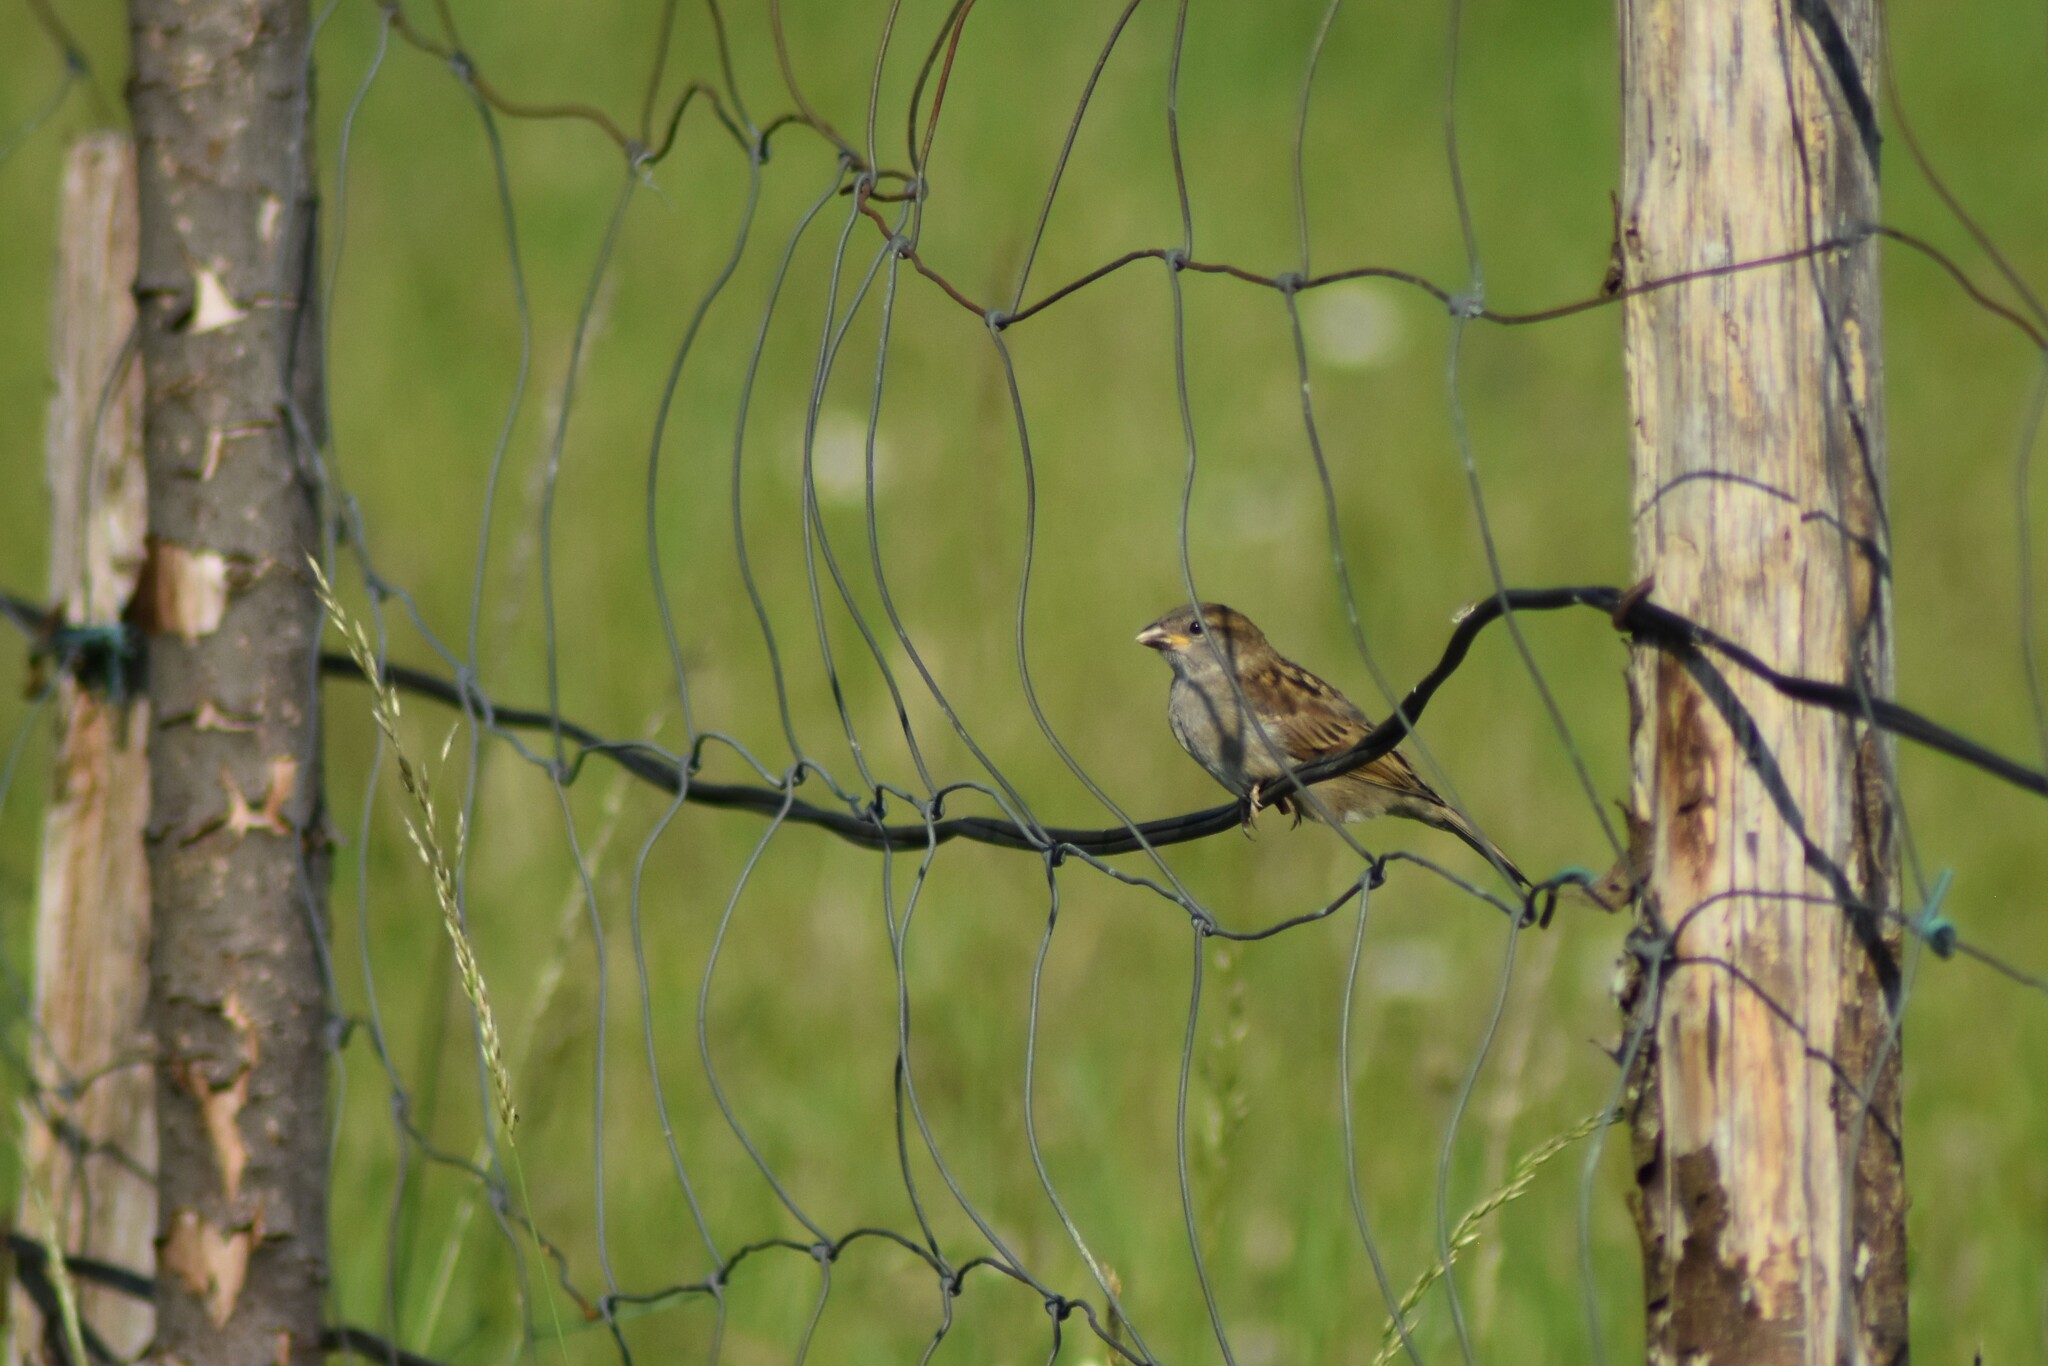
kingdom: Animalia
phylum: Chordata
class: Aves
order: Passeriformes
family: Passeridae
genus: Passer
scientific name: Passer domesticus
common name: House sparrow
